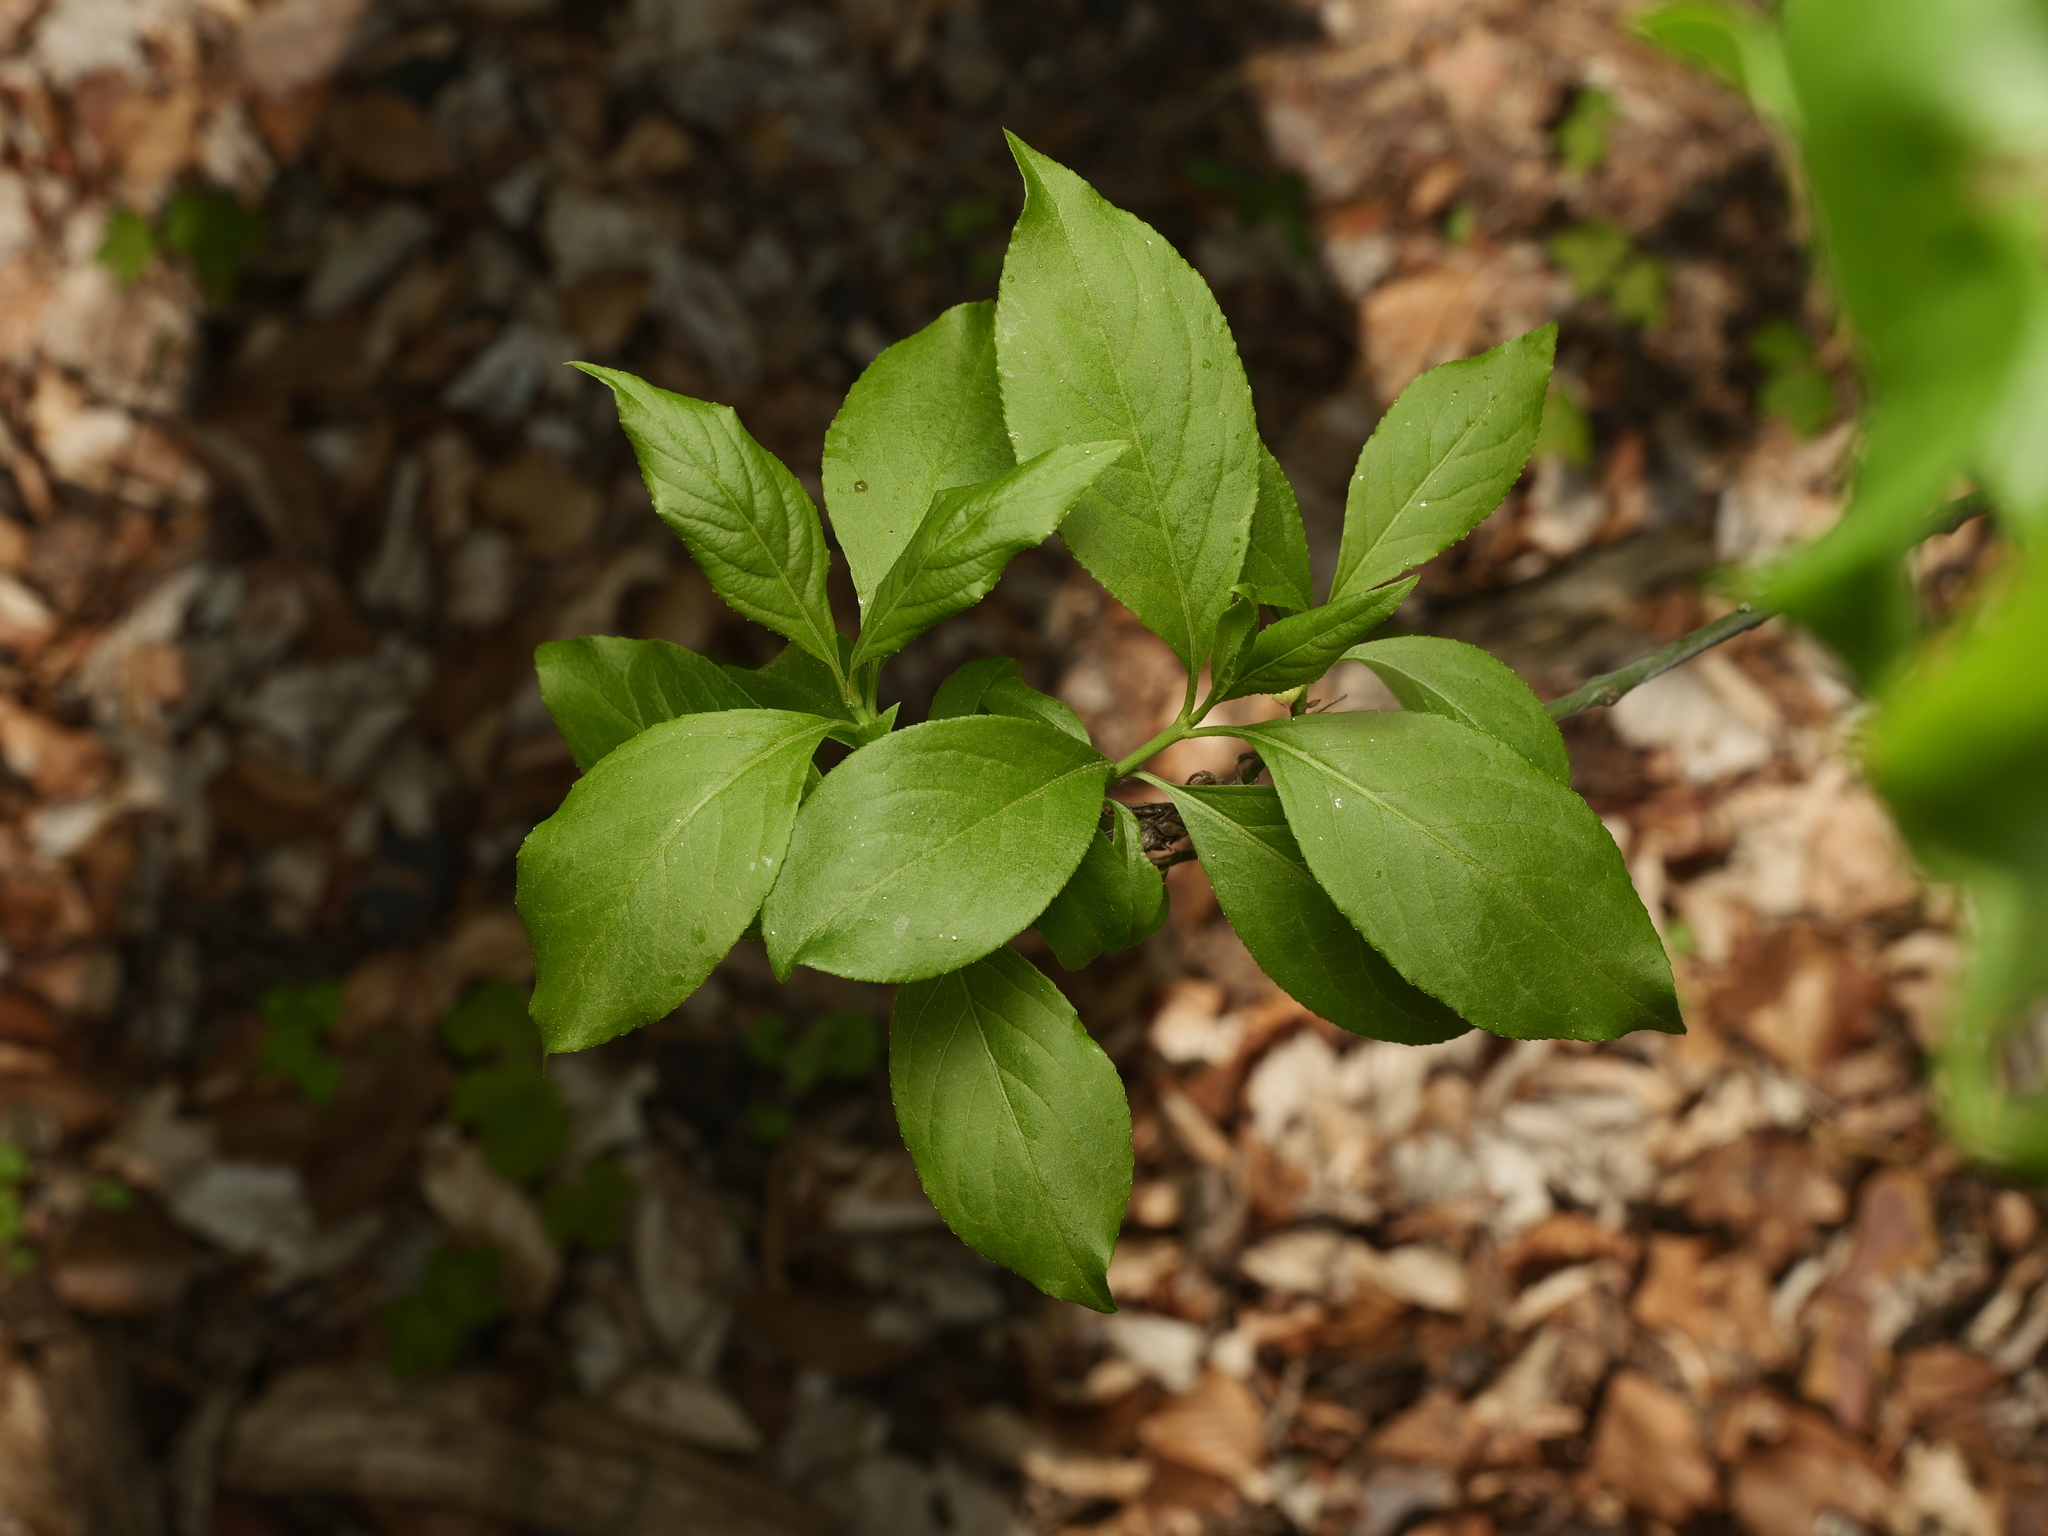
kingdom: Plantae
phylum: Tracheophyta
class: Magnoliopsida
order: Celastrales
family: Celastraceae
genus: Euonymus
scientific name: Euonymus europaeus
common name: Spindle
